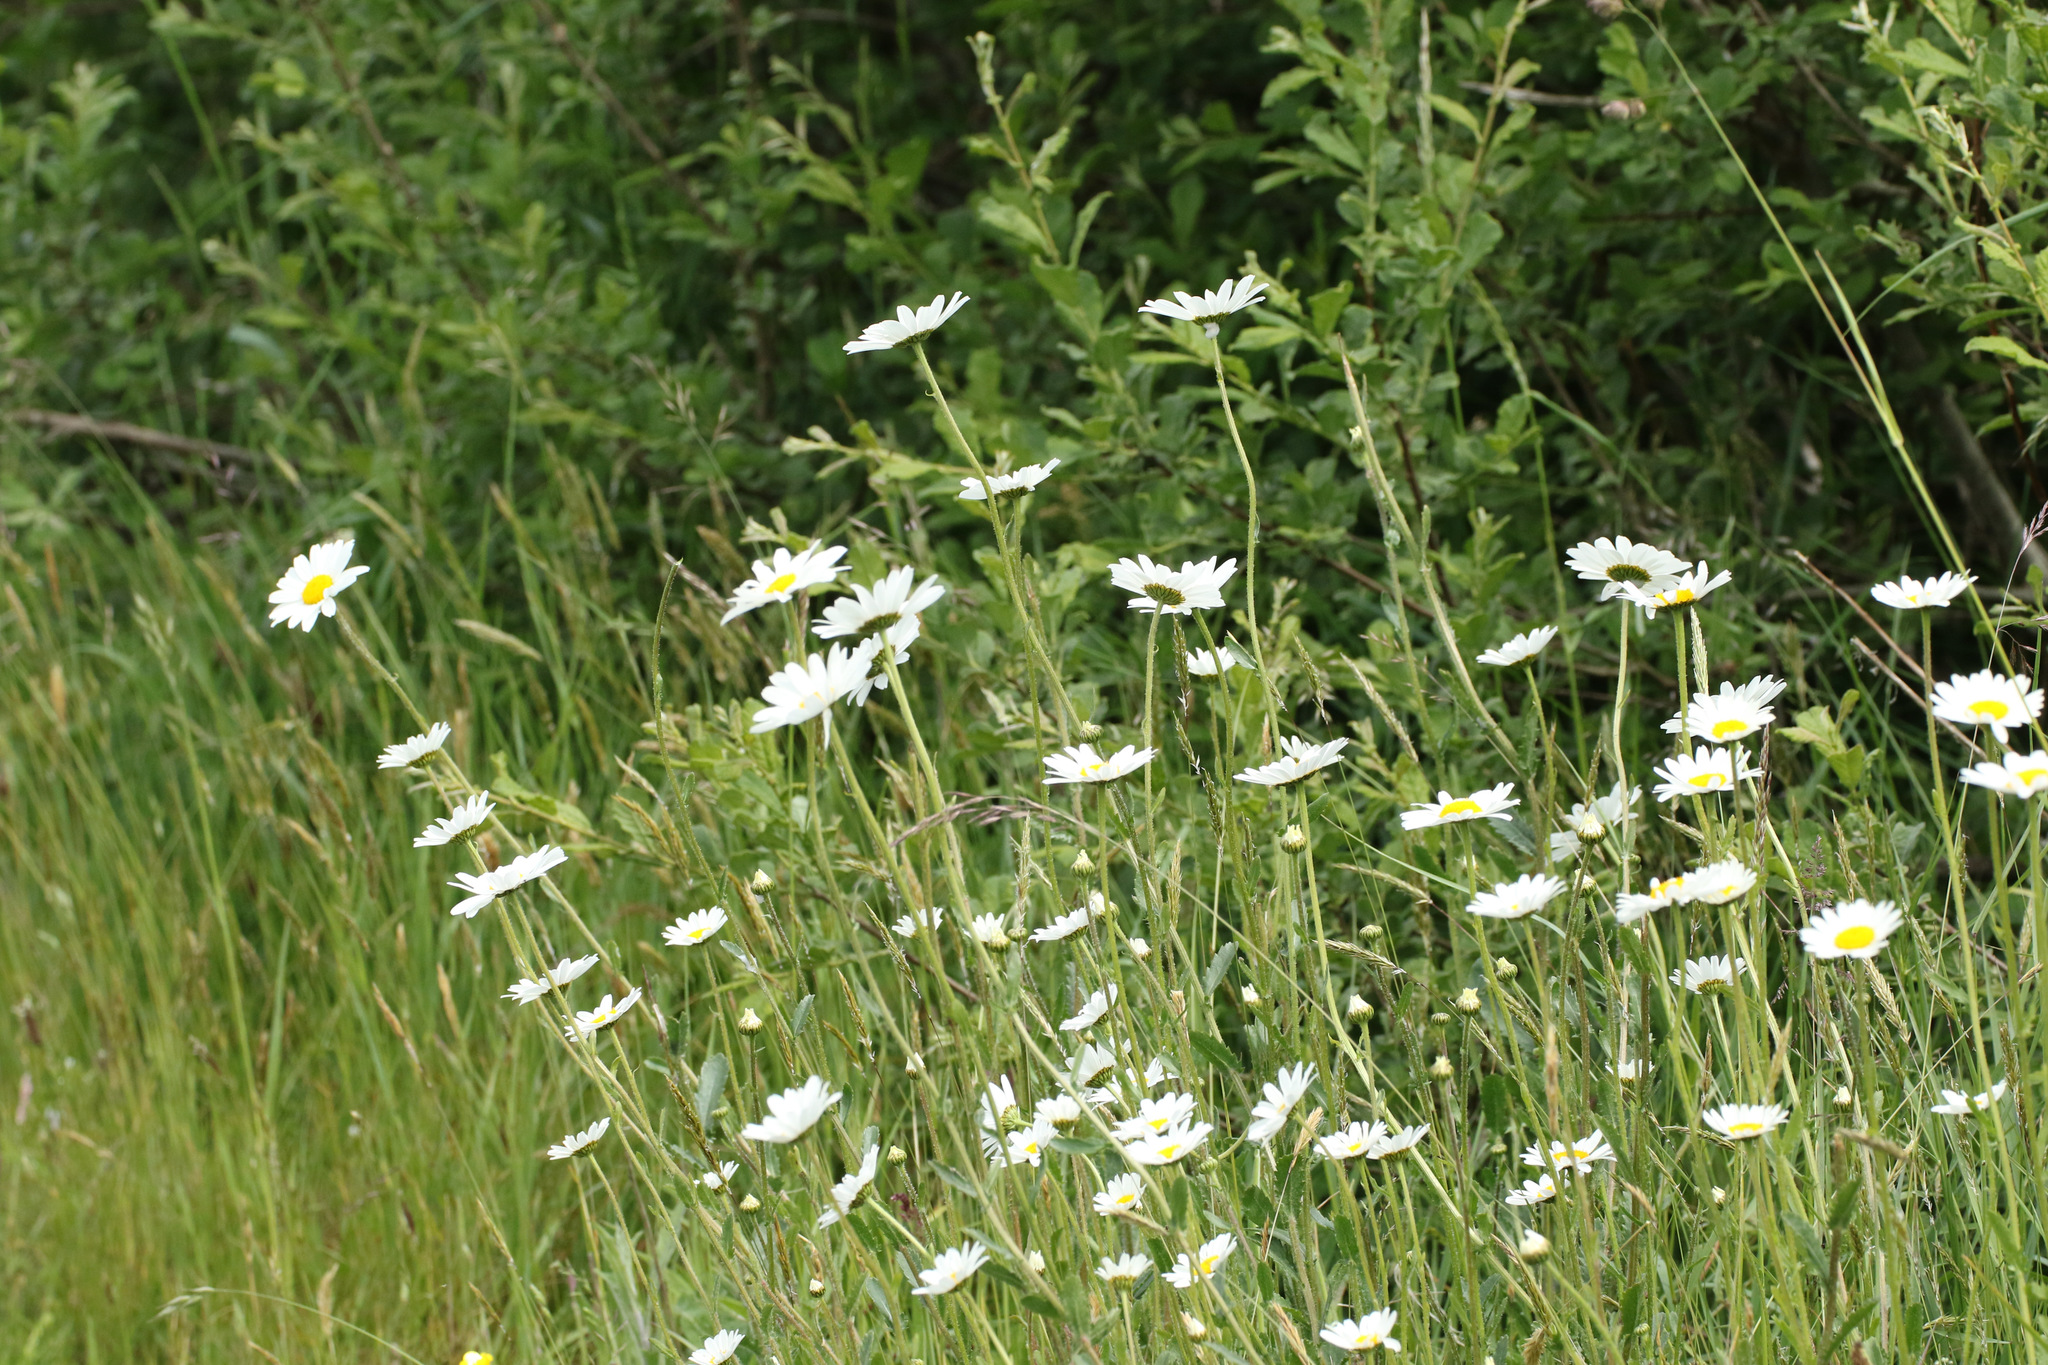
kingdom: Plantae
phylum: Tracheophyta
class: Magnoliopsida
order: Asterales
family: Asteraceae
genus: Leucanthemum
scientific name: Leucanthemum vulgare
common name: Oxeye daisy
